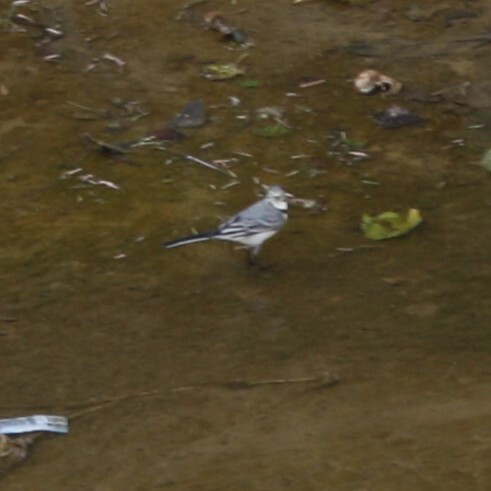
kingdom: Animalia
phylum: Chordata
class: Aves
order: Passeriformes
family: Motacillidae
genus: Motacilla
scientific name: Motacilla alba
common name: White wagtail
